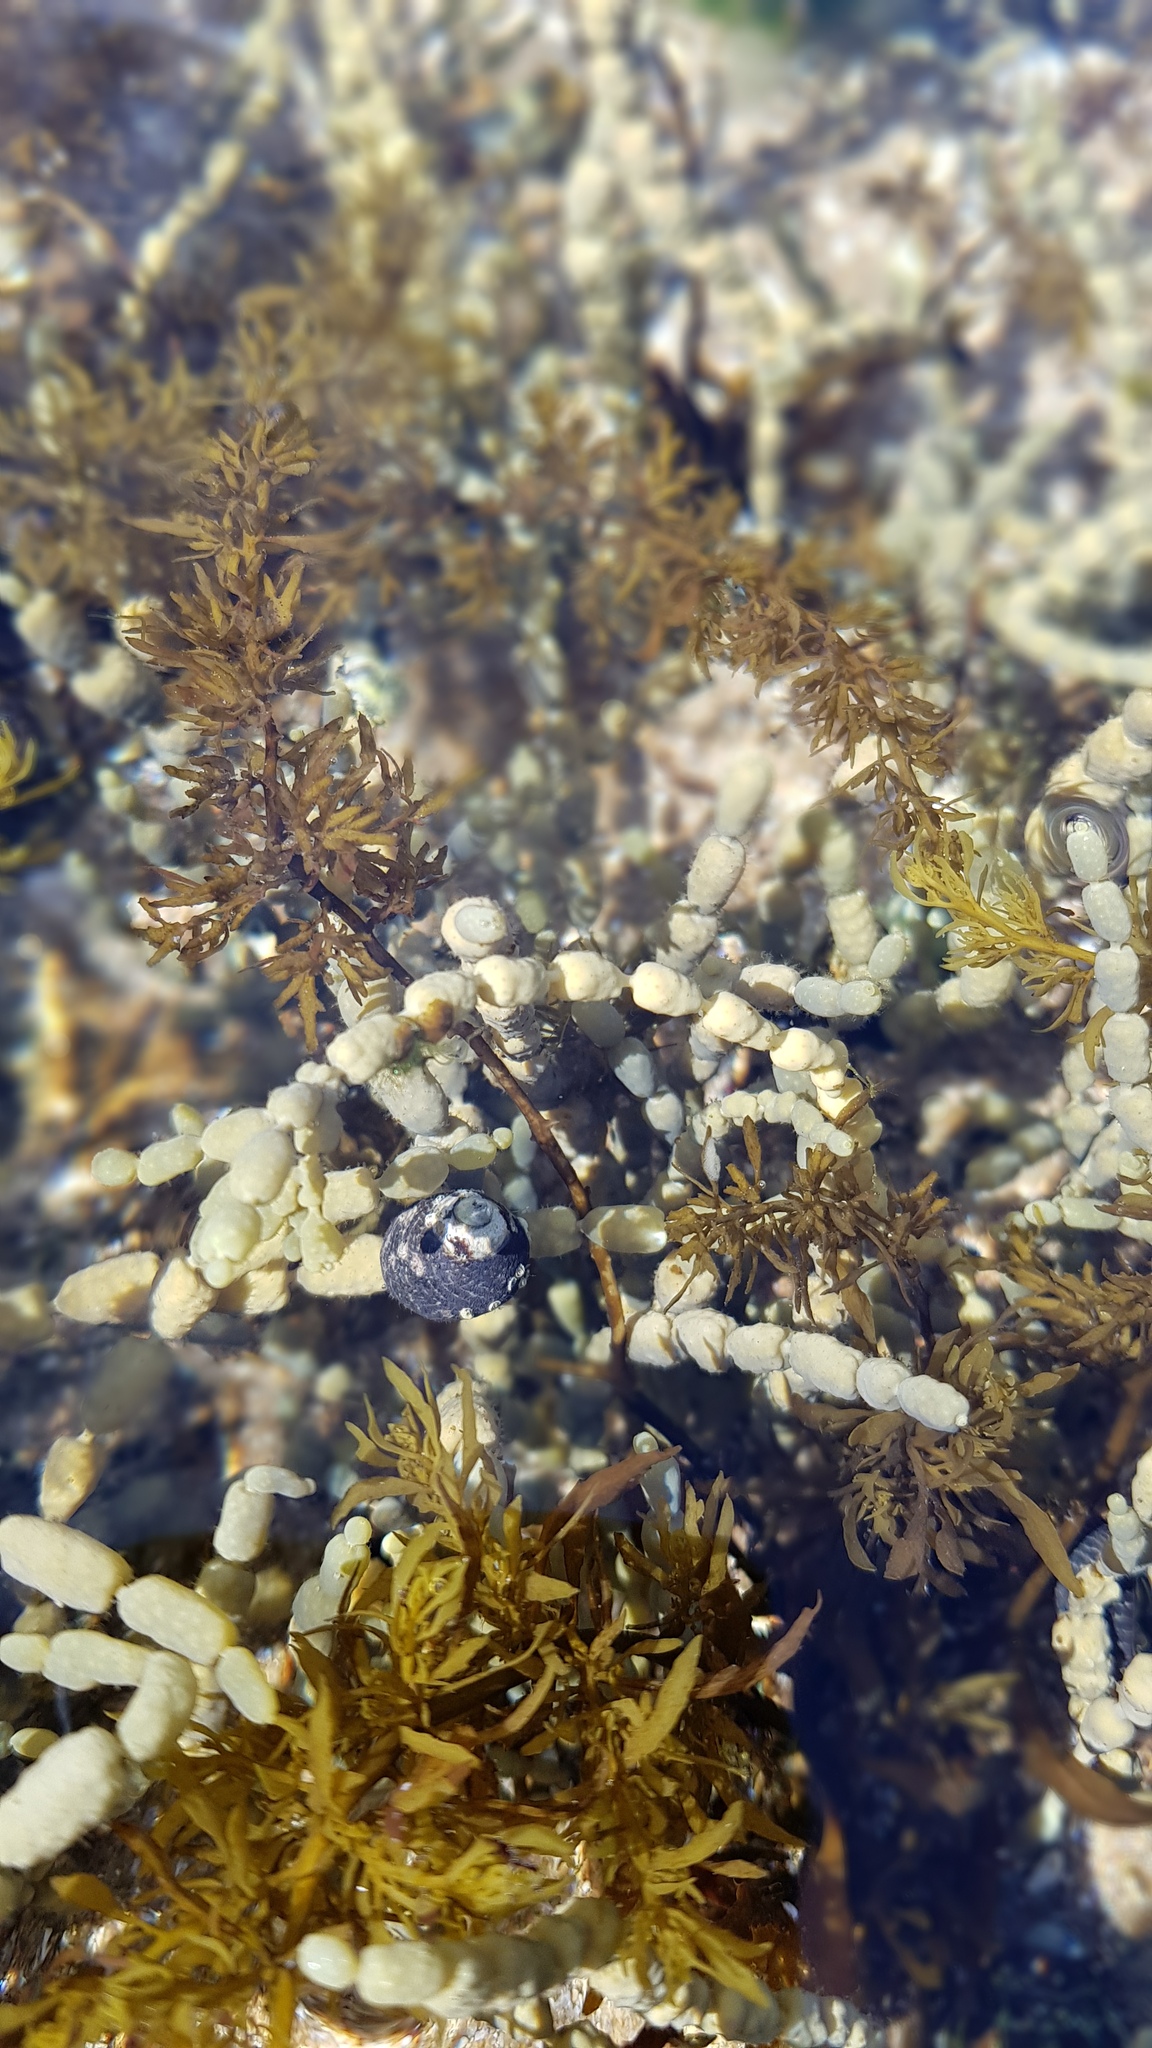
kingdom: Chromista
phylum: Ochrophyta
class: Phaeophyceae
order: Fucales
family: Hormosiraceae
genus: Hormosira
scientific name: Hormosira banksii
